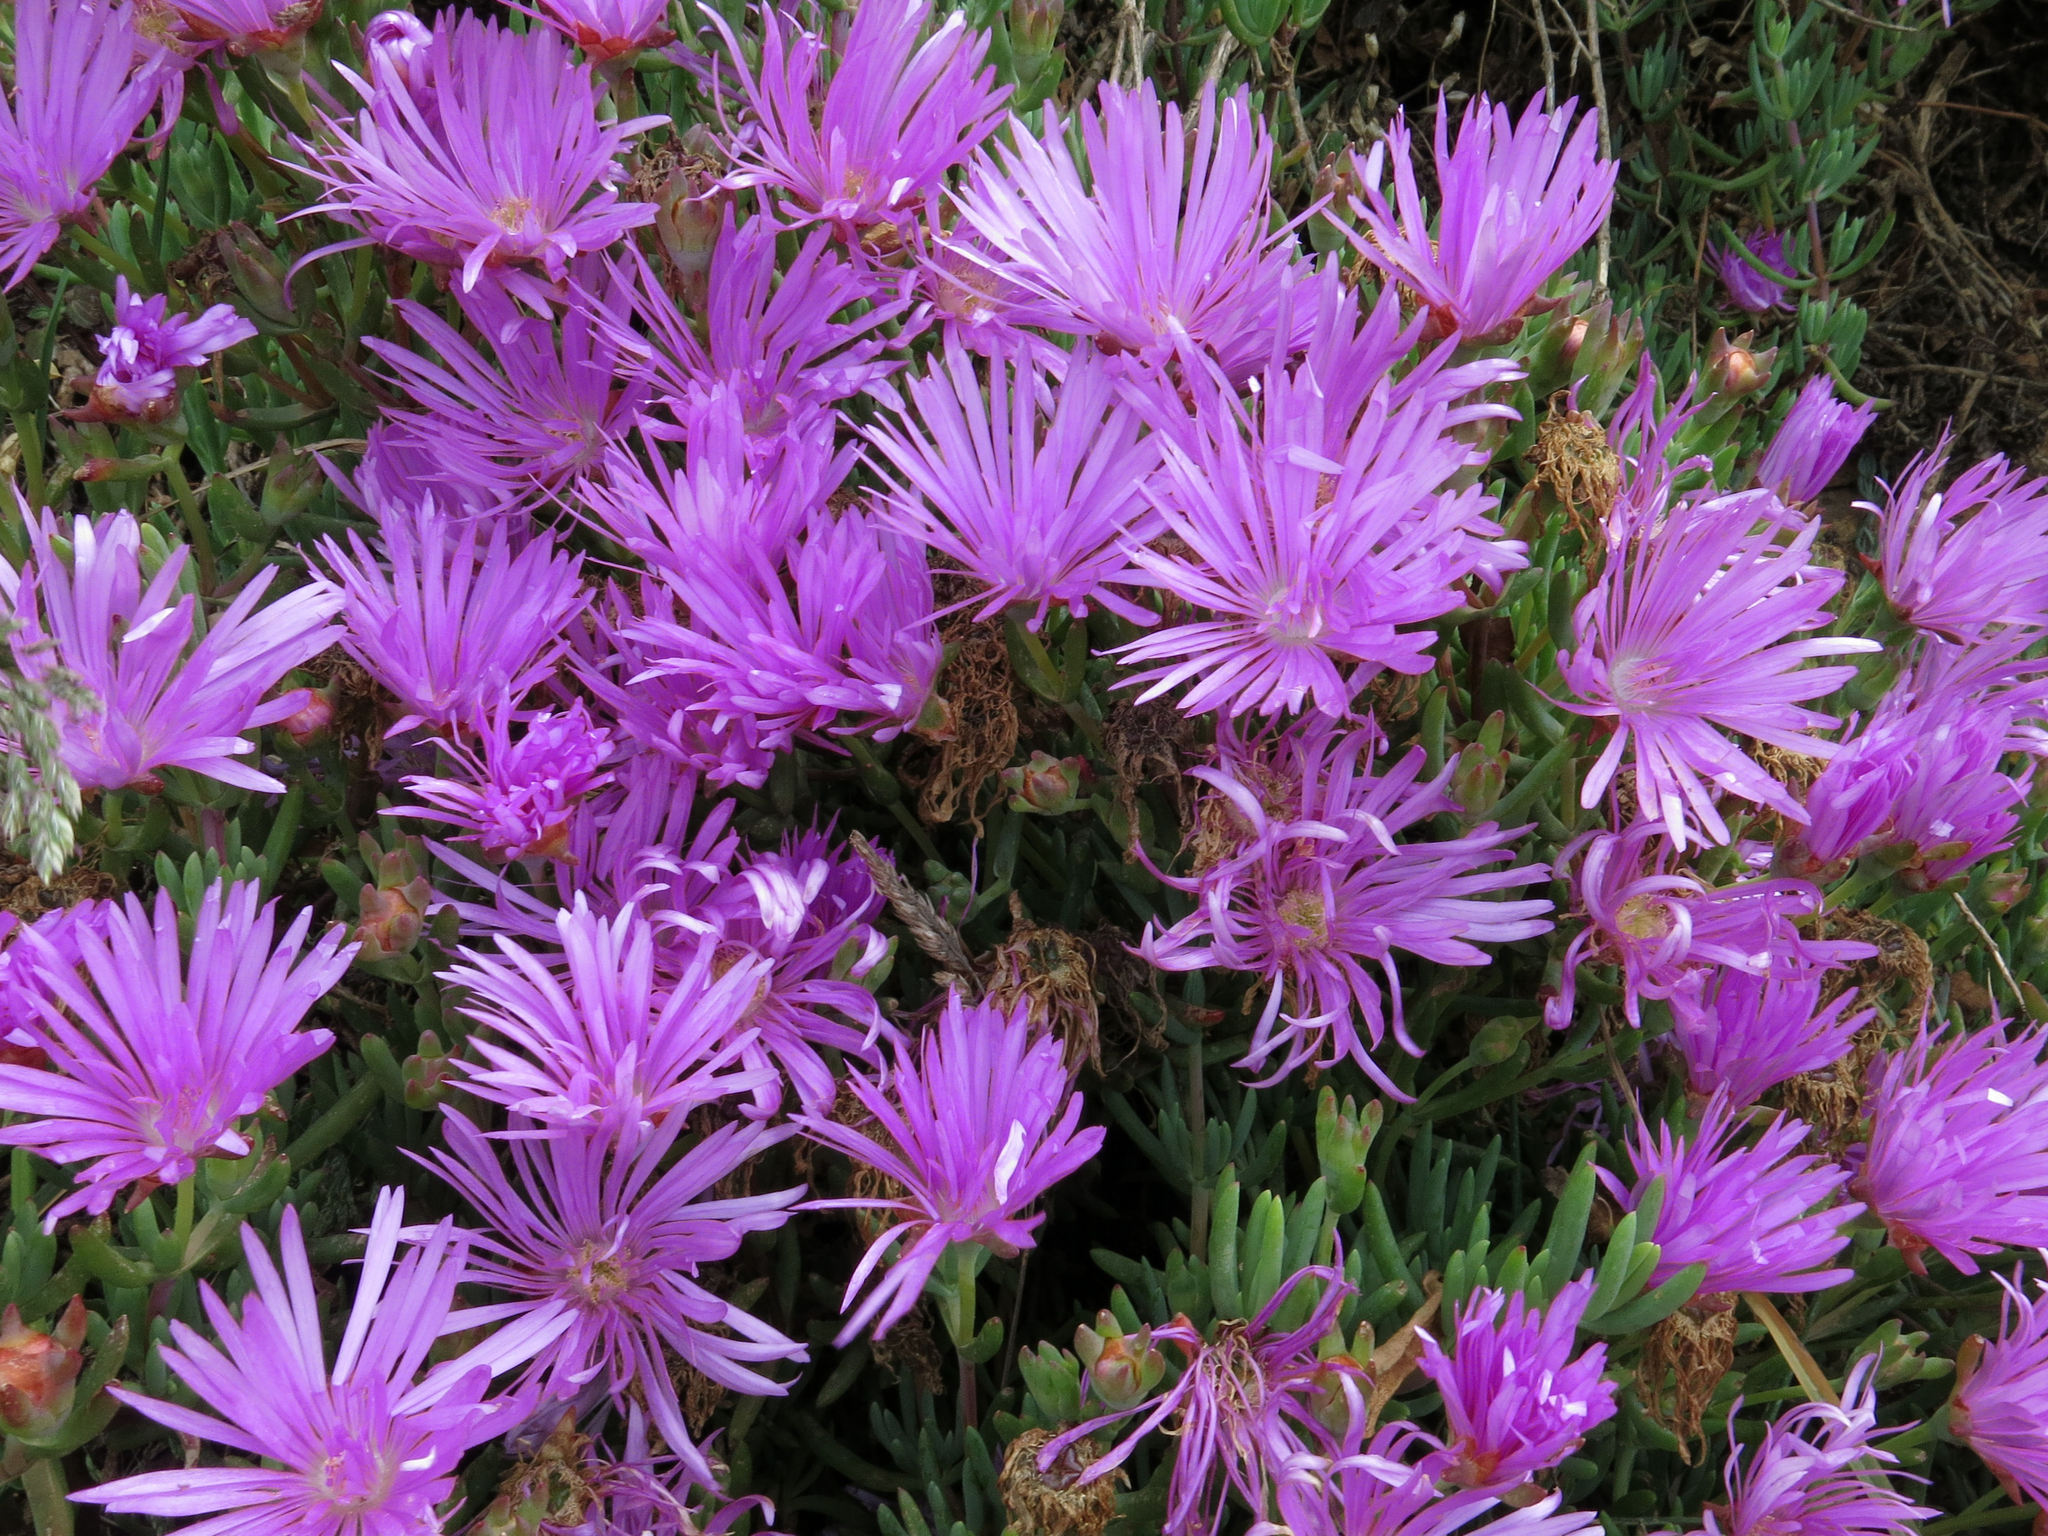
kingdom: Plantae
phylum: Tracheophyta
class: Magnoliopsida
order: Caryophyllales
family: Aizoaceae
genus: Lampranthus
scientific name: Lampranthus spectabilis
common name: Trailing iceplant
